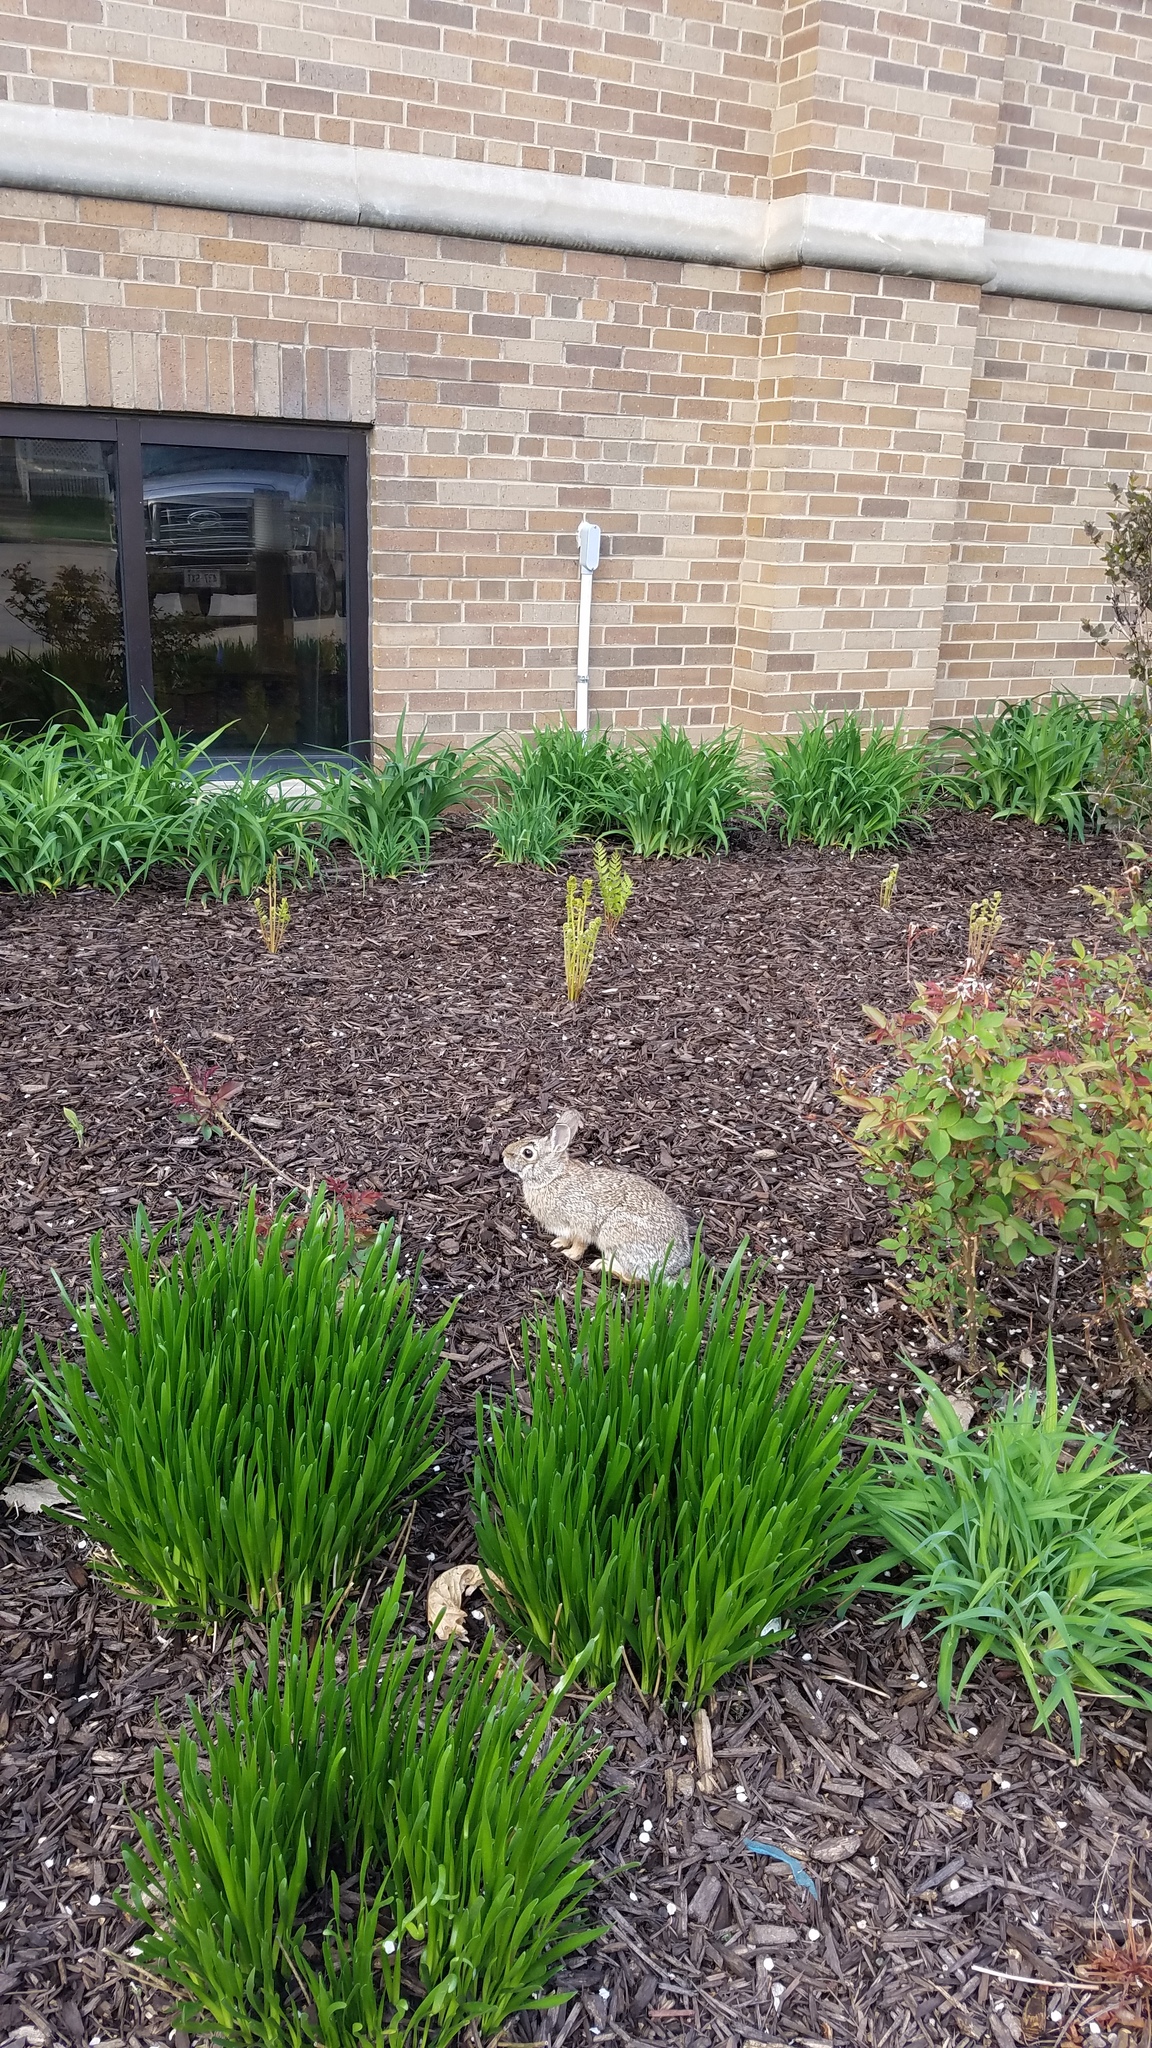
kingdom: Animalia
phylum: Chordata
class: Mammalia
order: Lagomorpha
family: Leporidae
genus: Sylvilagus
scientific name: Sylvilagus floridanus
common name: Eastern cottontail
